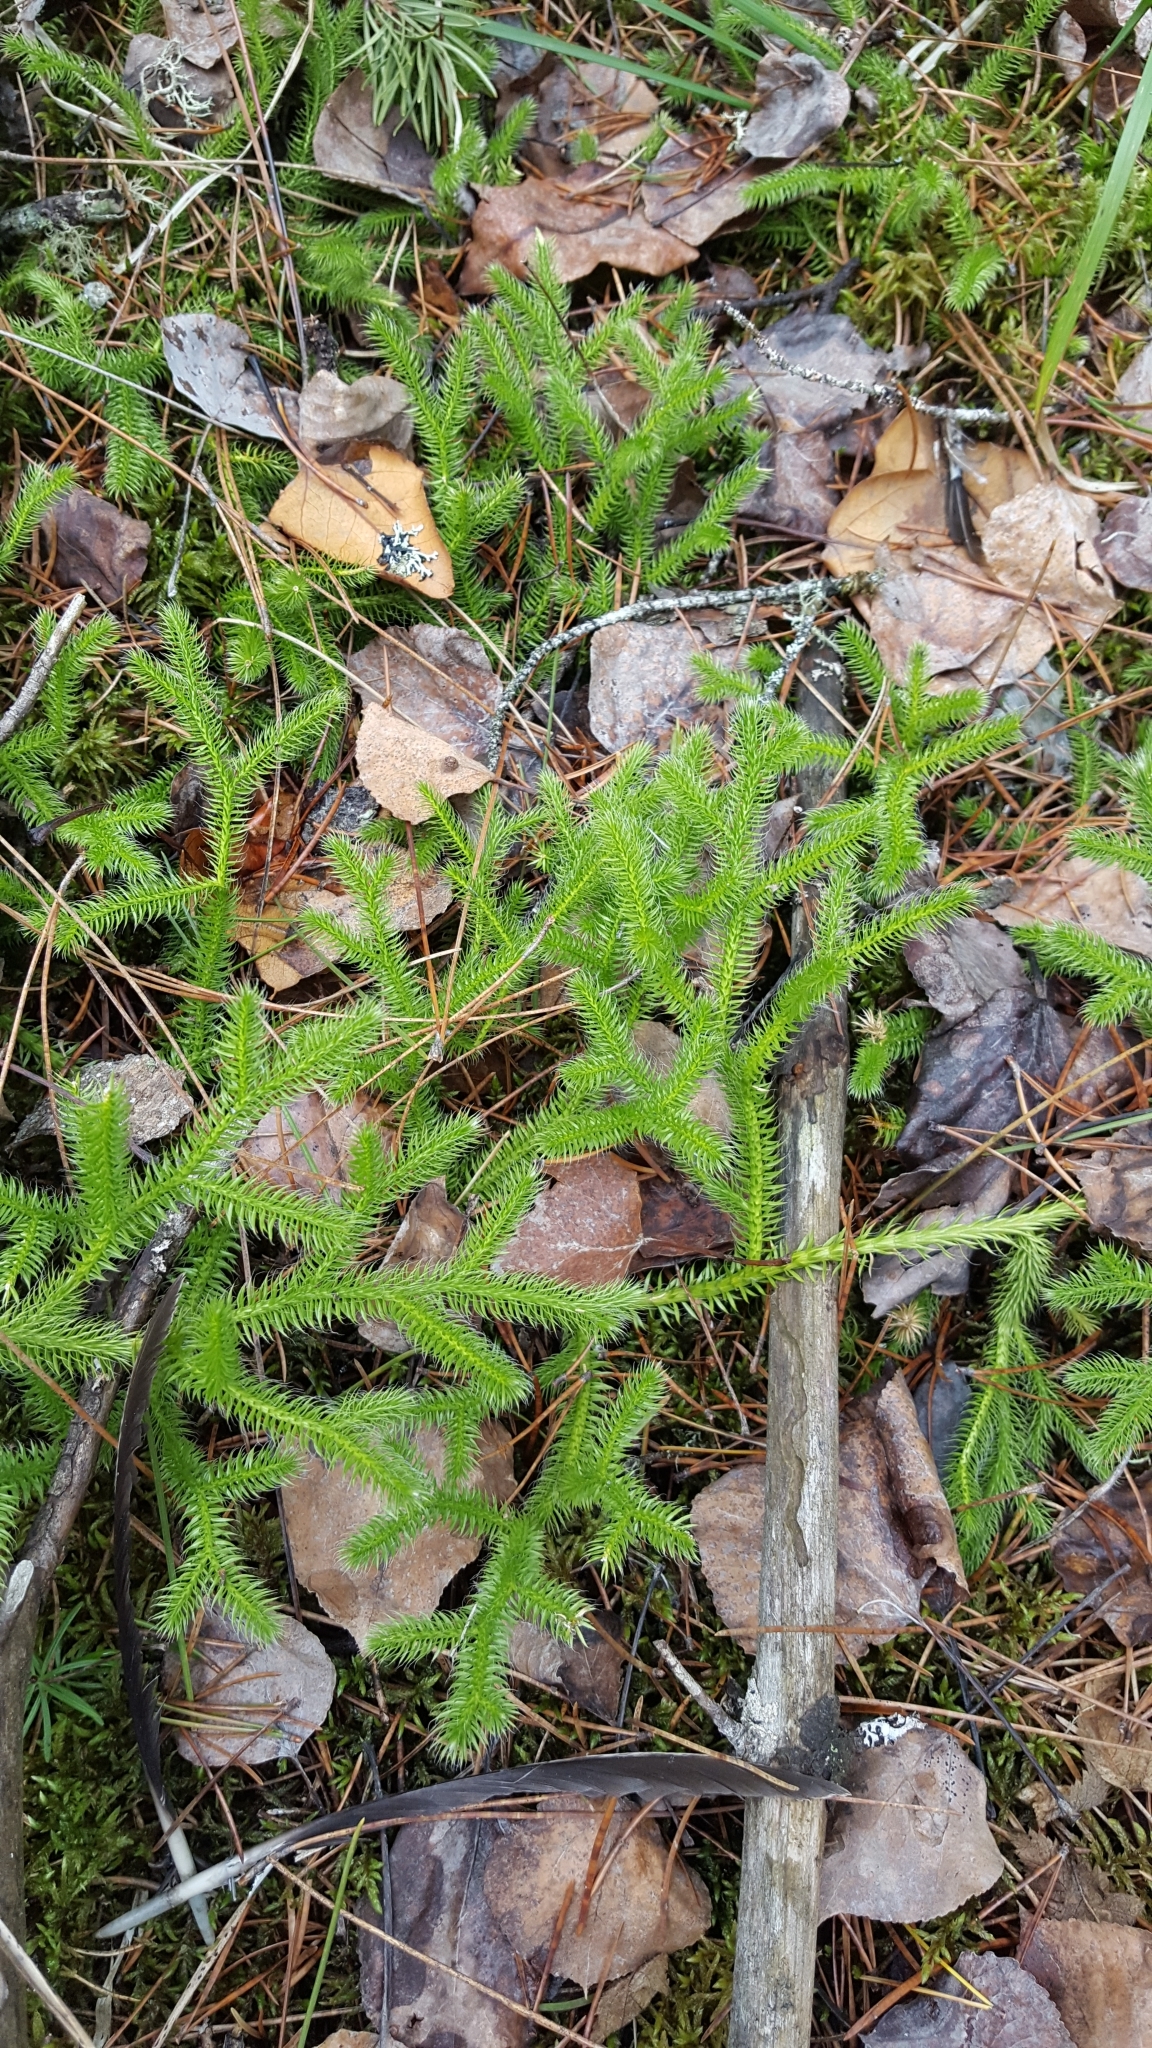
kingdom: Plantae
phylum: Tracheophyta
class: Lycopodiopsida
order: Lycopodiales
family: Lycopodiaceae
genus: Lycopodium
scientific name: Lycopodium clavatum
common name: Stag's-horn clubmoss
